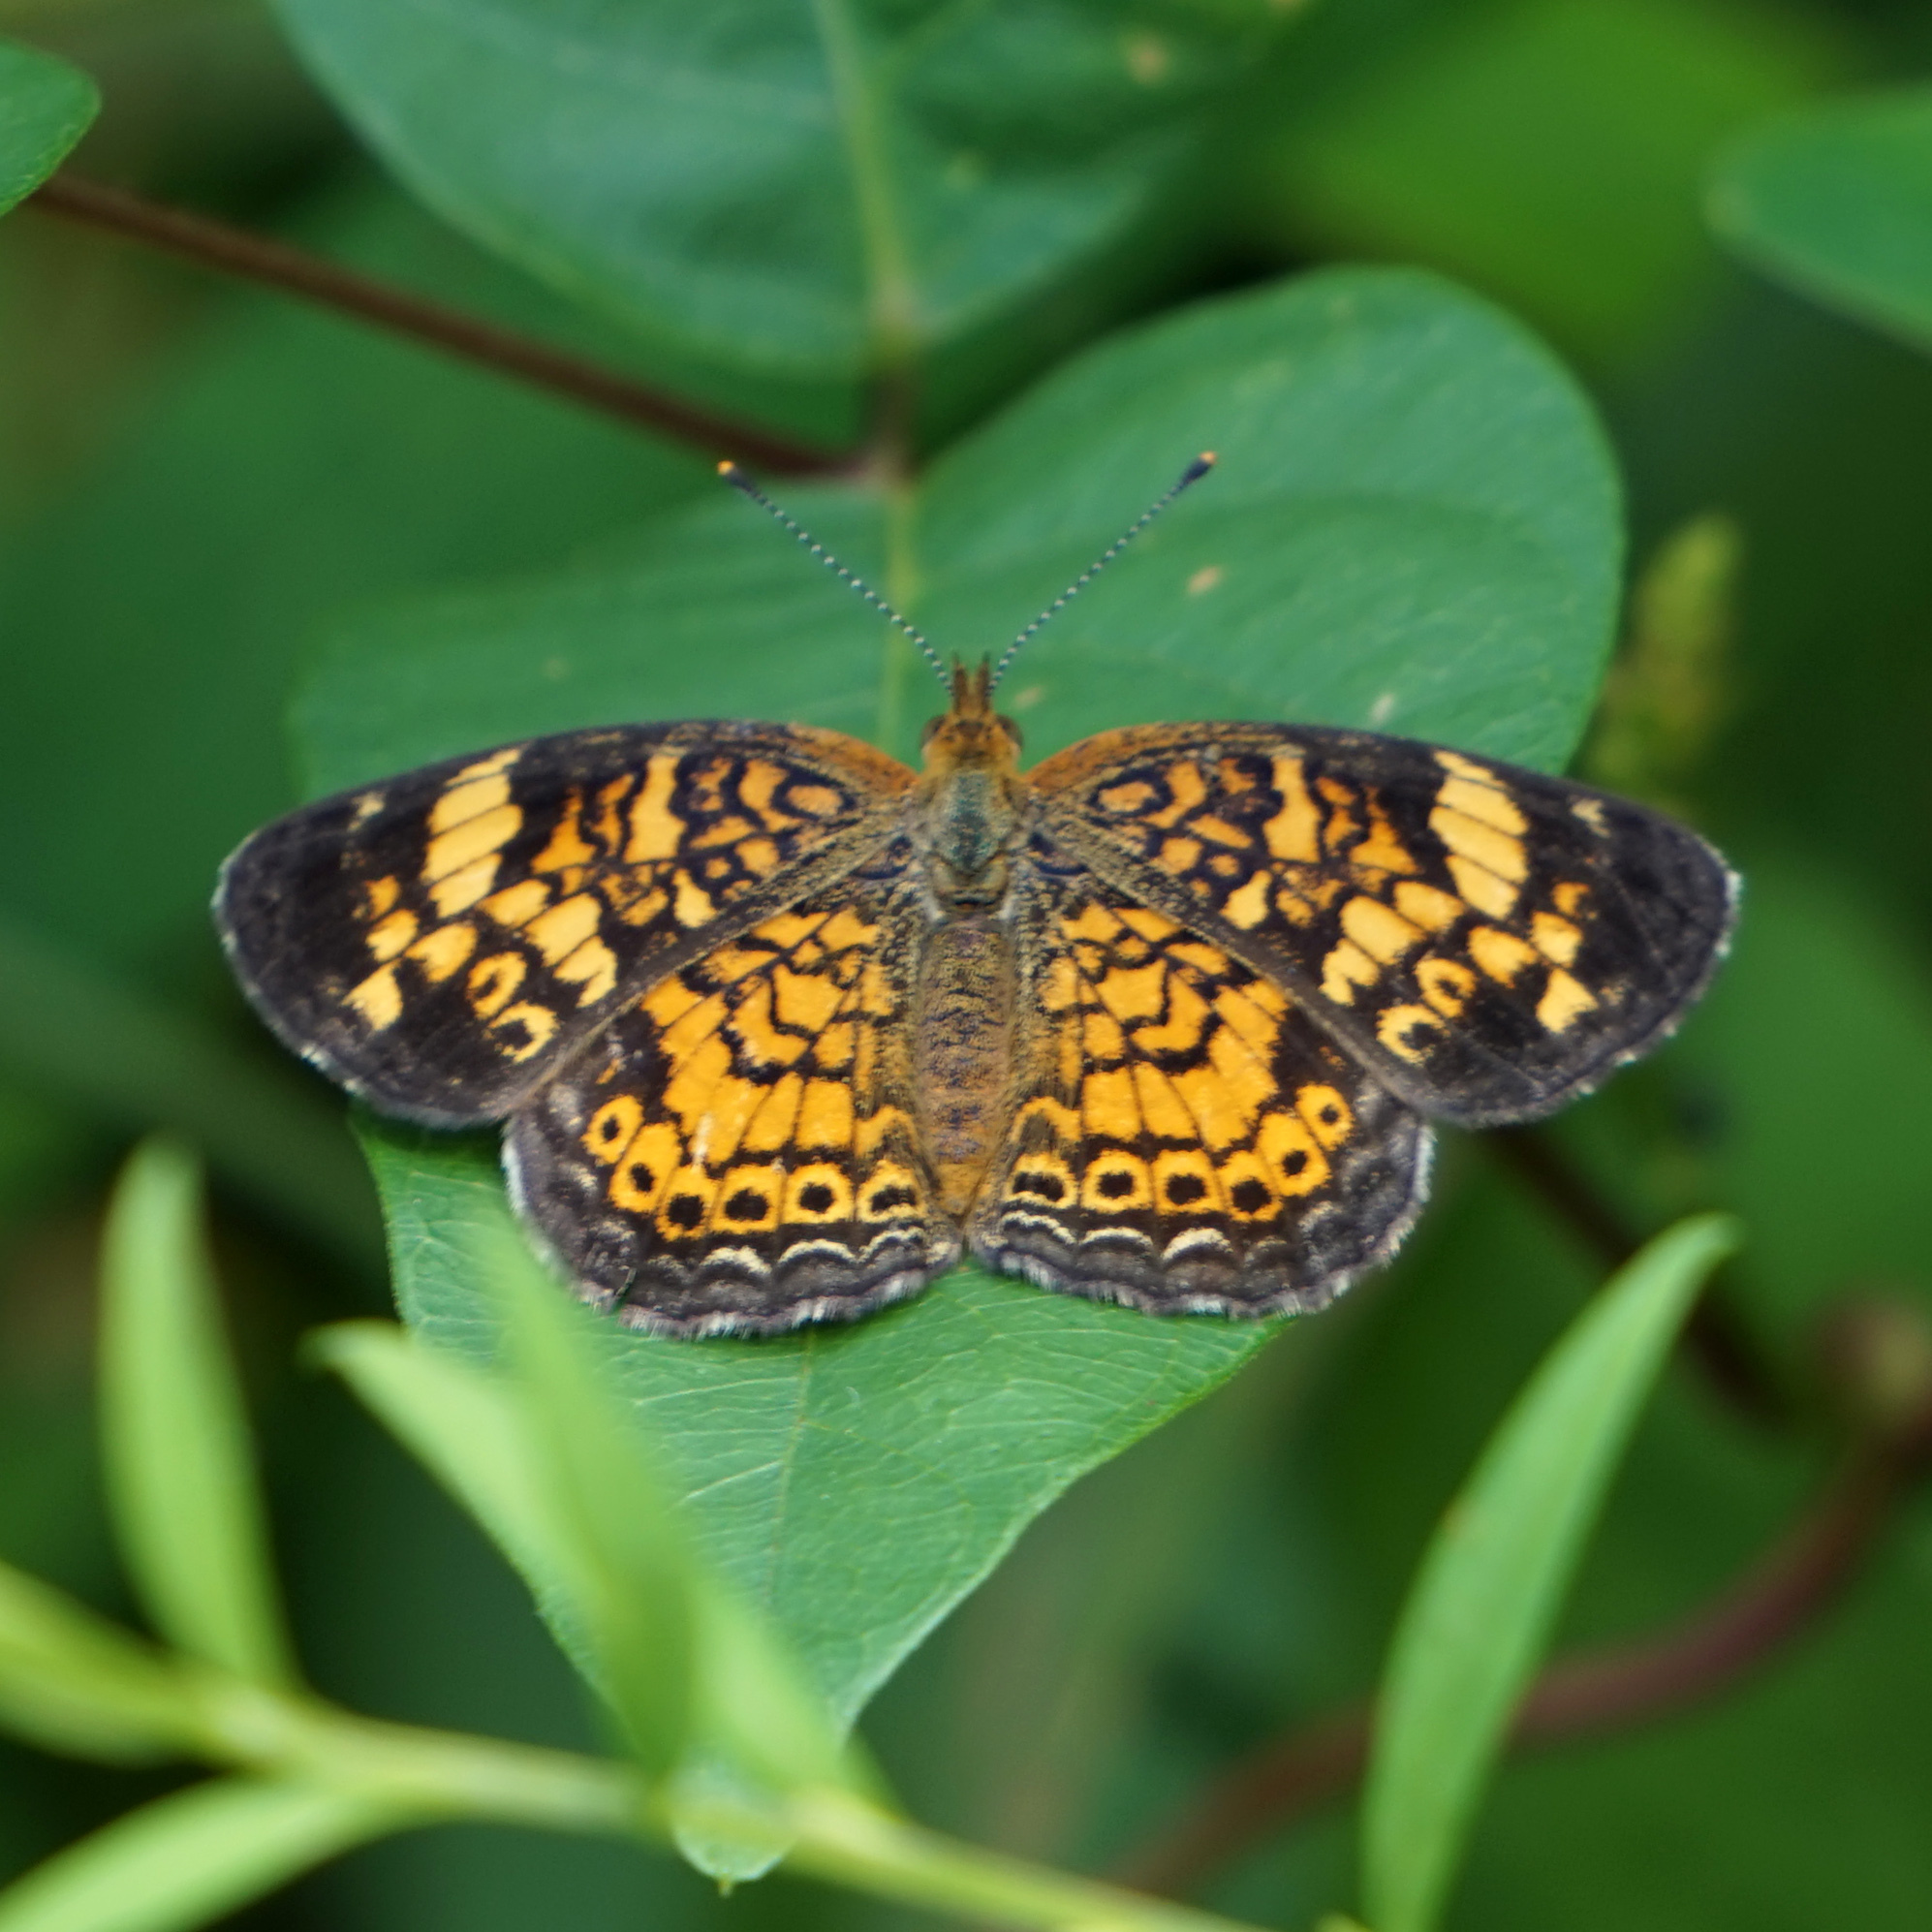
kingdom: Animalia
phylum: Arthropoda
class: Insecta
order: Lepidoptera
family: Nymphalidae
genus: Phyciodes
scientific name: Phyciodes tharos
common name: Pearl crescent
